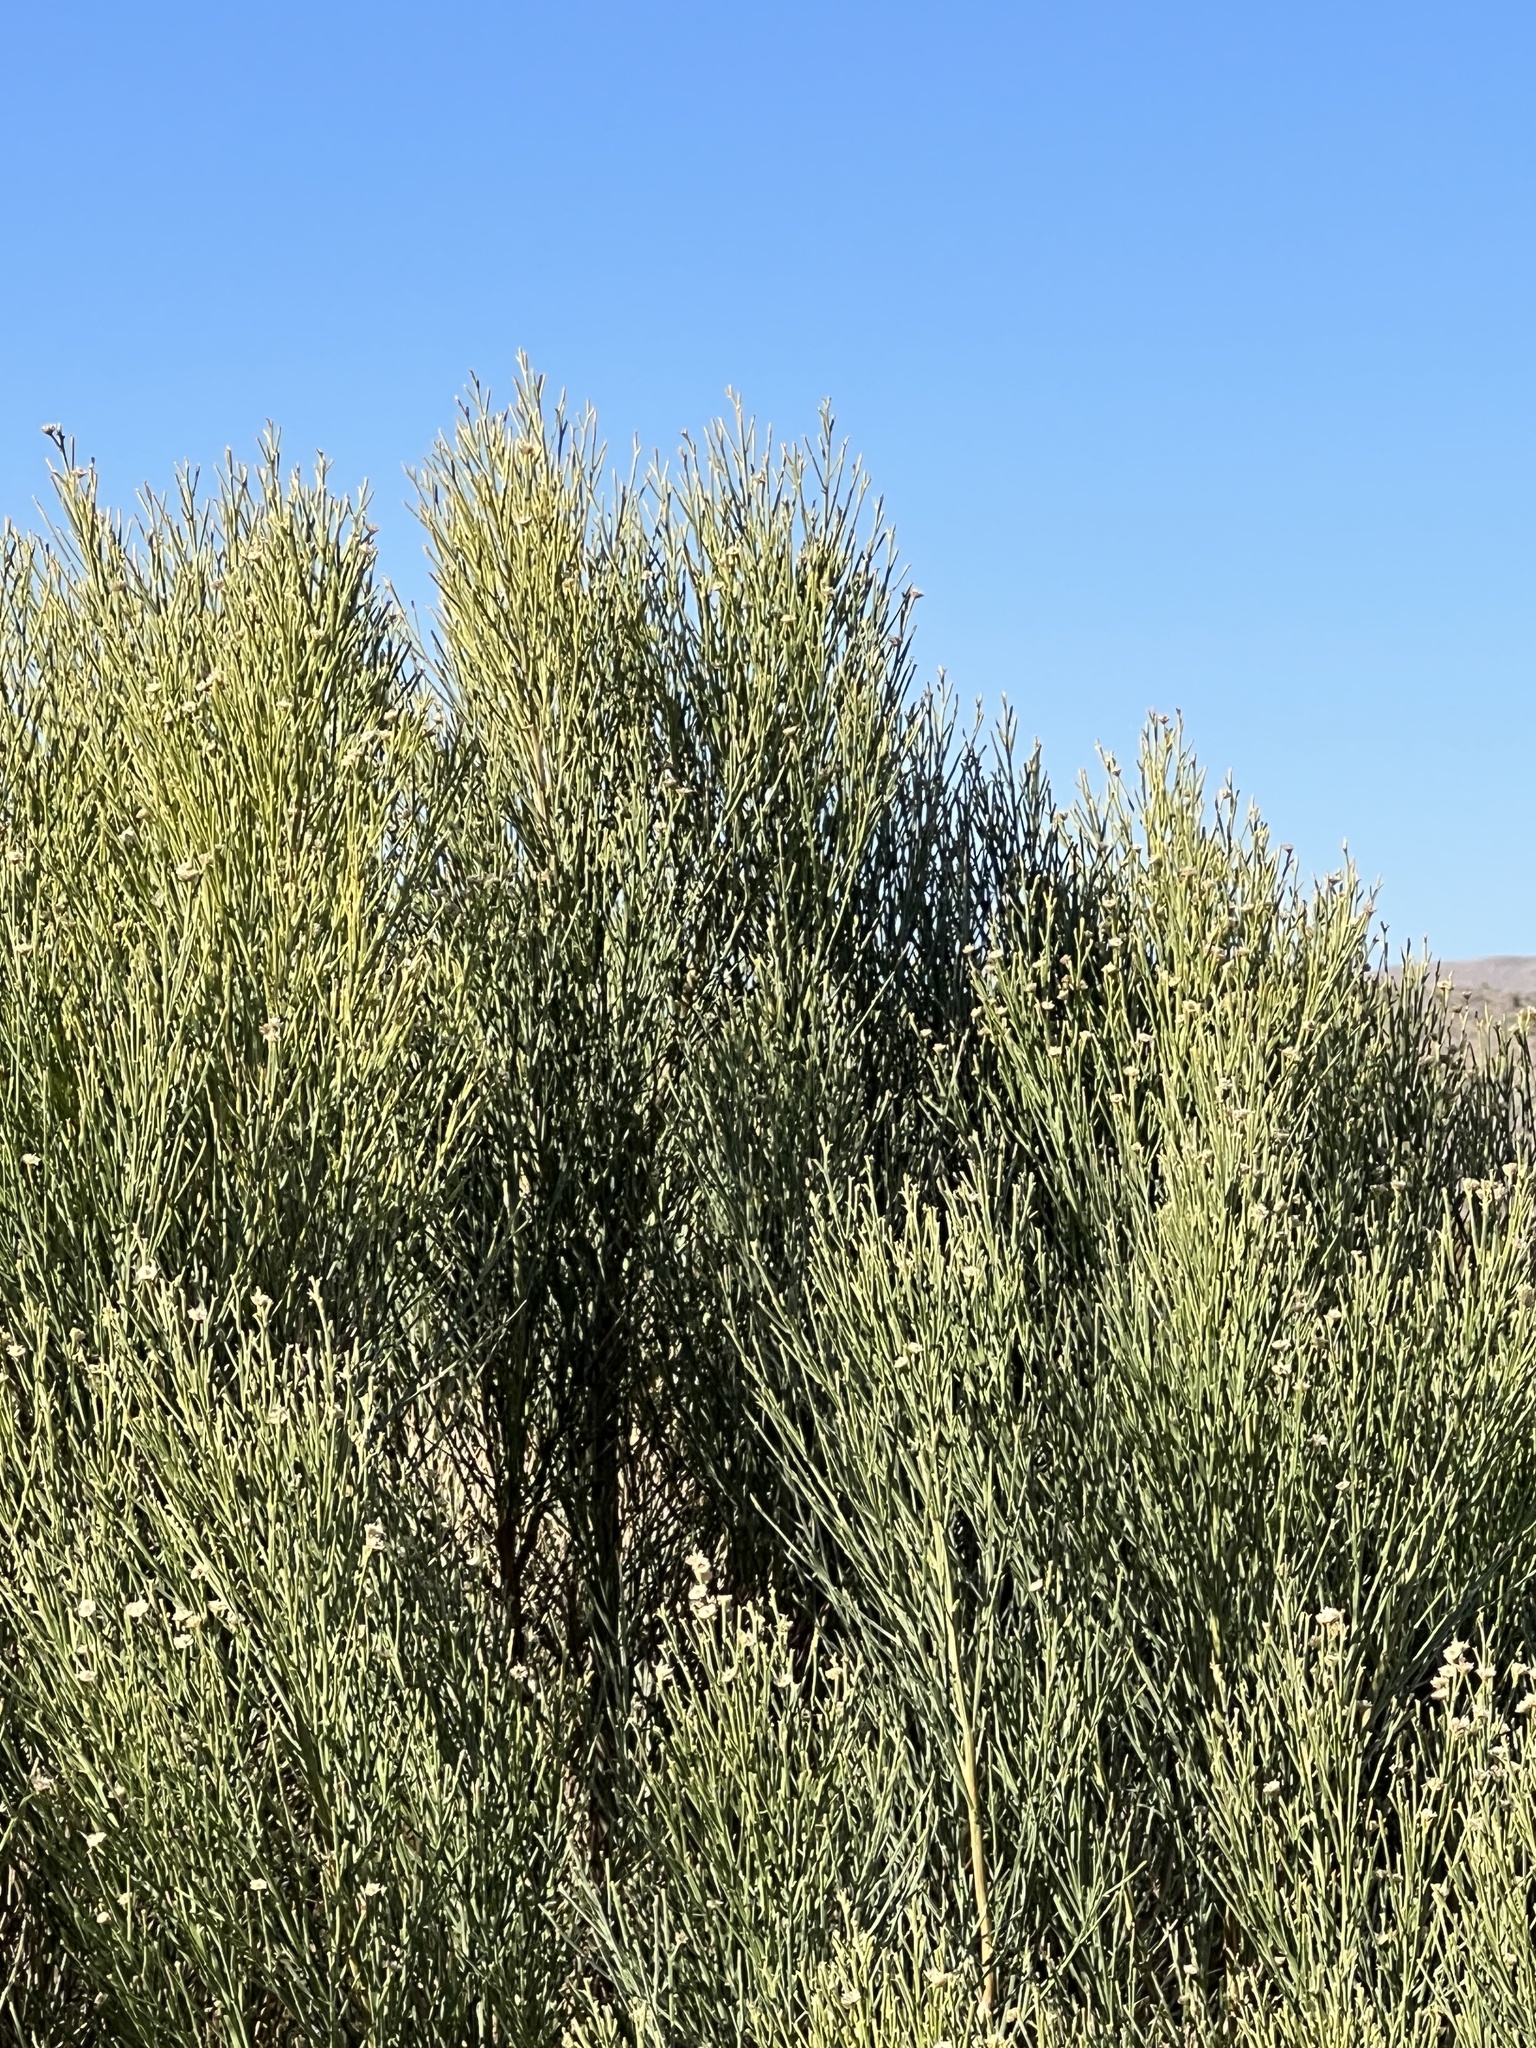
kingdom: Plantae
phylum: Tracheophyta
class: Magnoliopsida
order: Asterales
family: Asteraceae
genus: Baccharis
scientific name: Baccharis sarothroides
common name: Desert-broom
